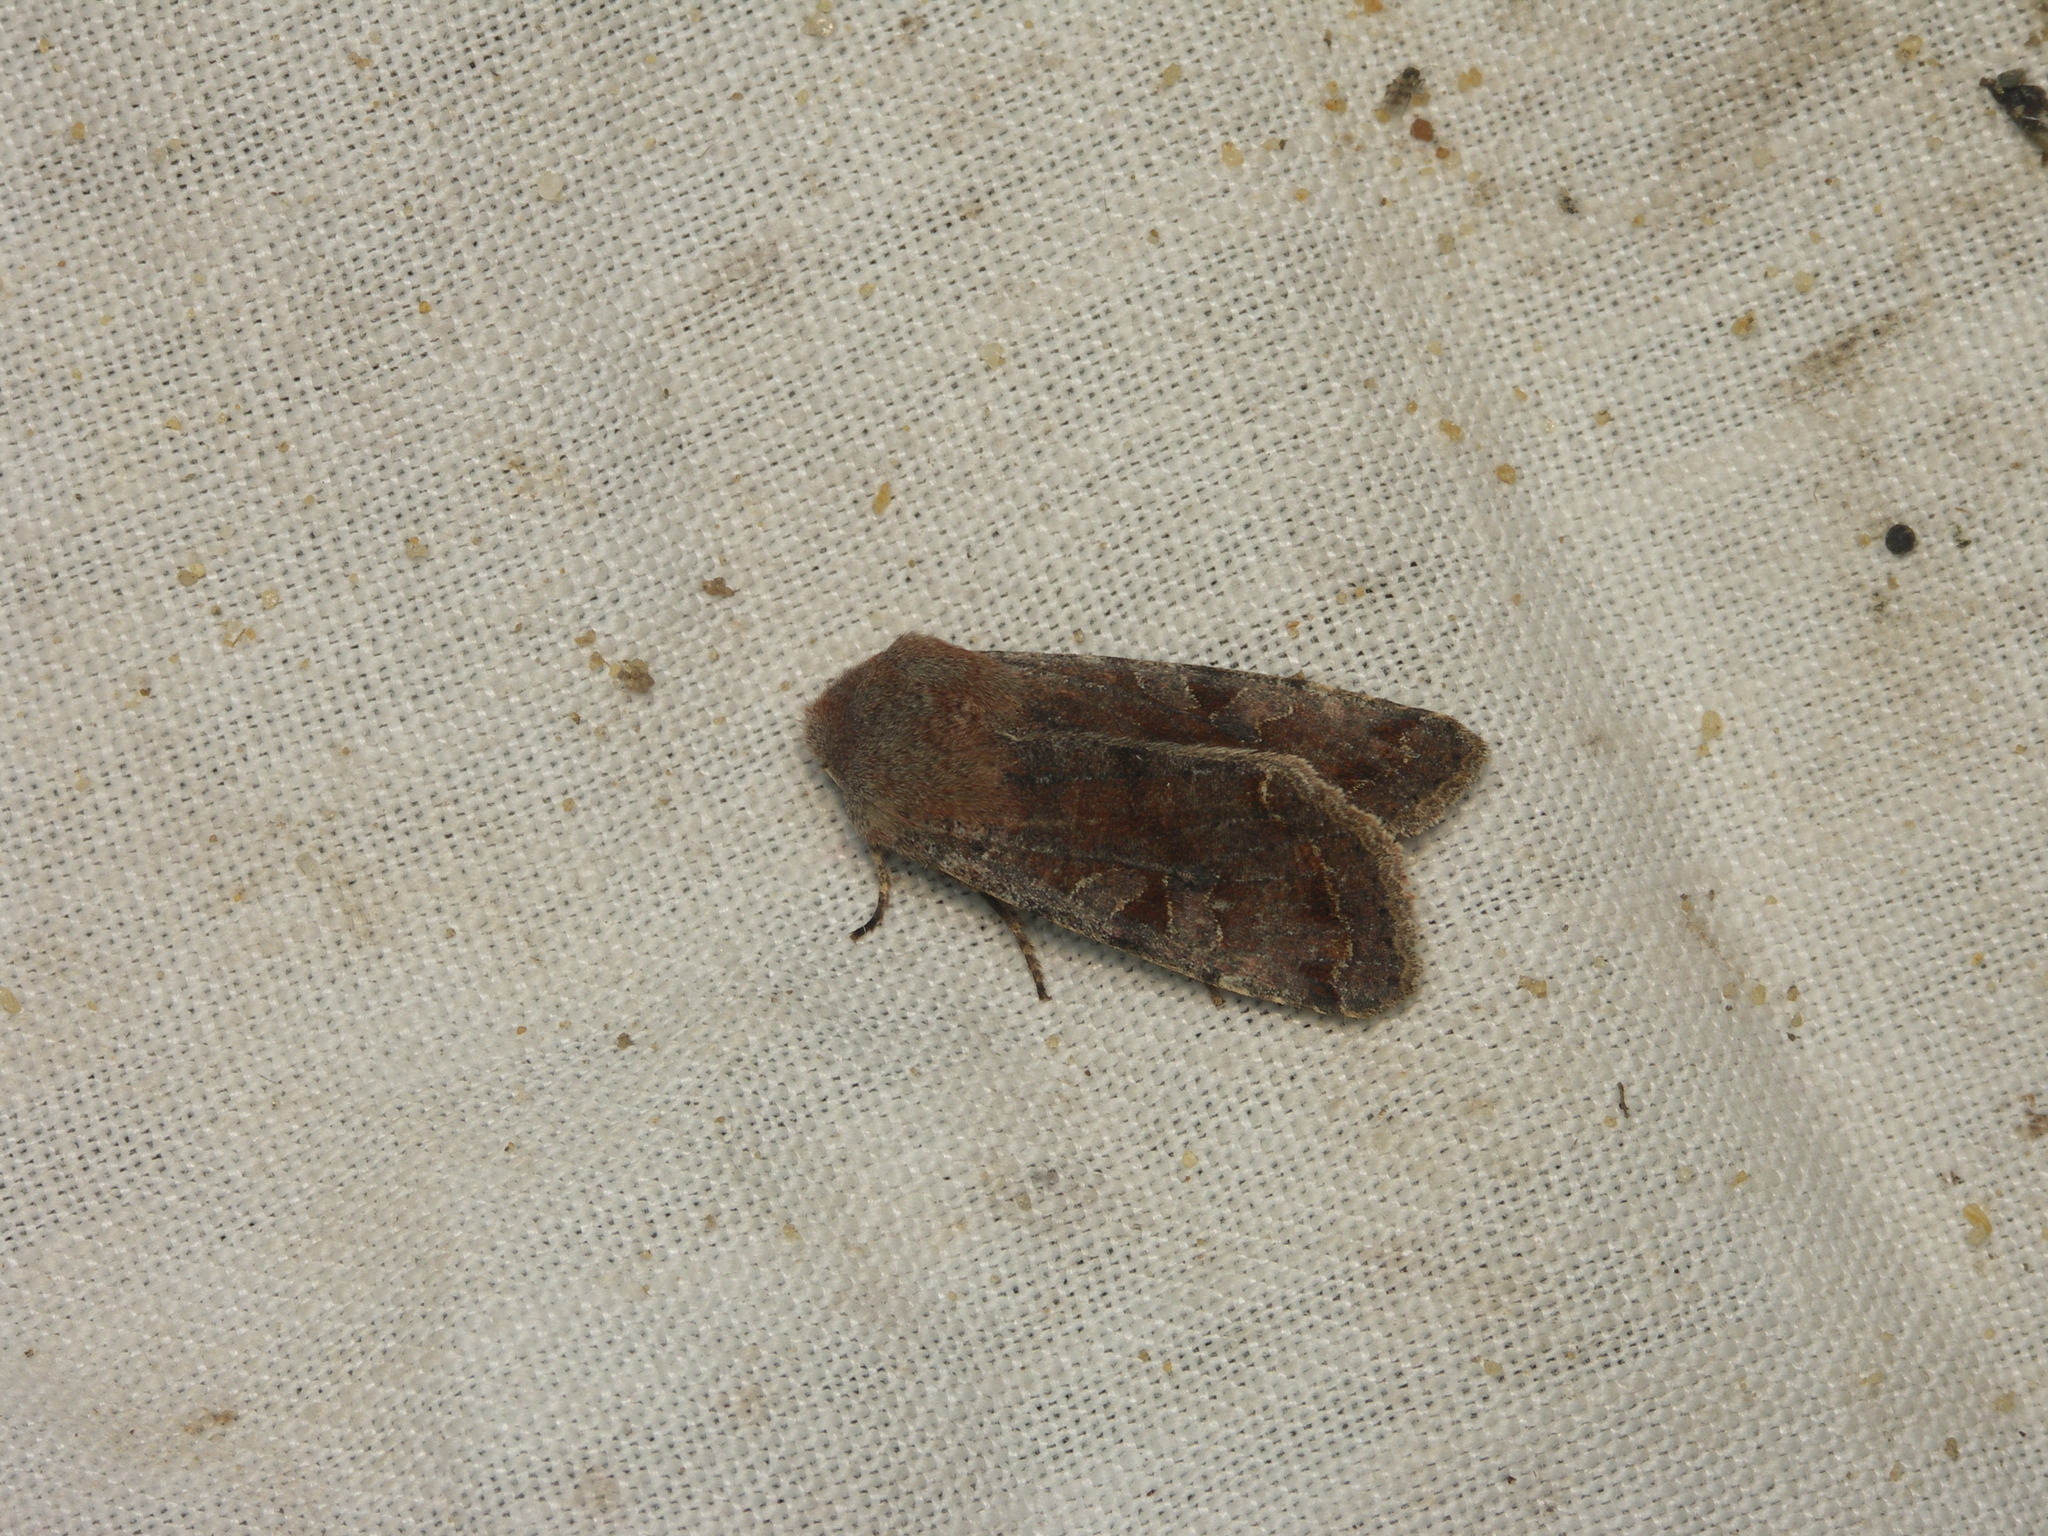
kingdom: Animalia
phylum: Arthropoda
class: Insecta
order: Lepidoptera
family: Noctuidae
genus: Orthosia
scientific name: Orthosia incerta
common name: Clouded drab
